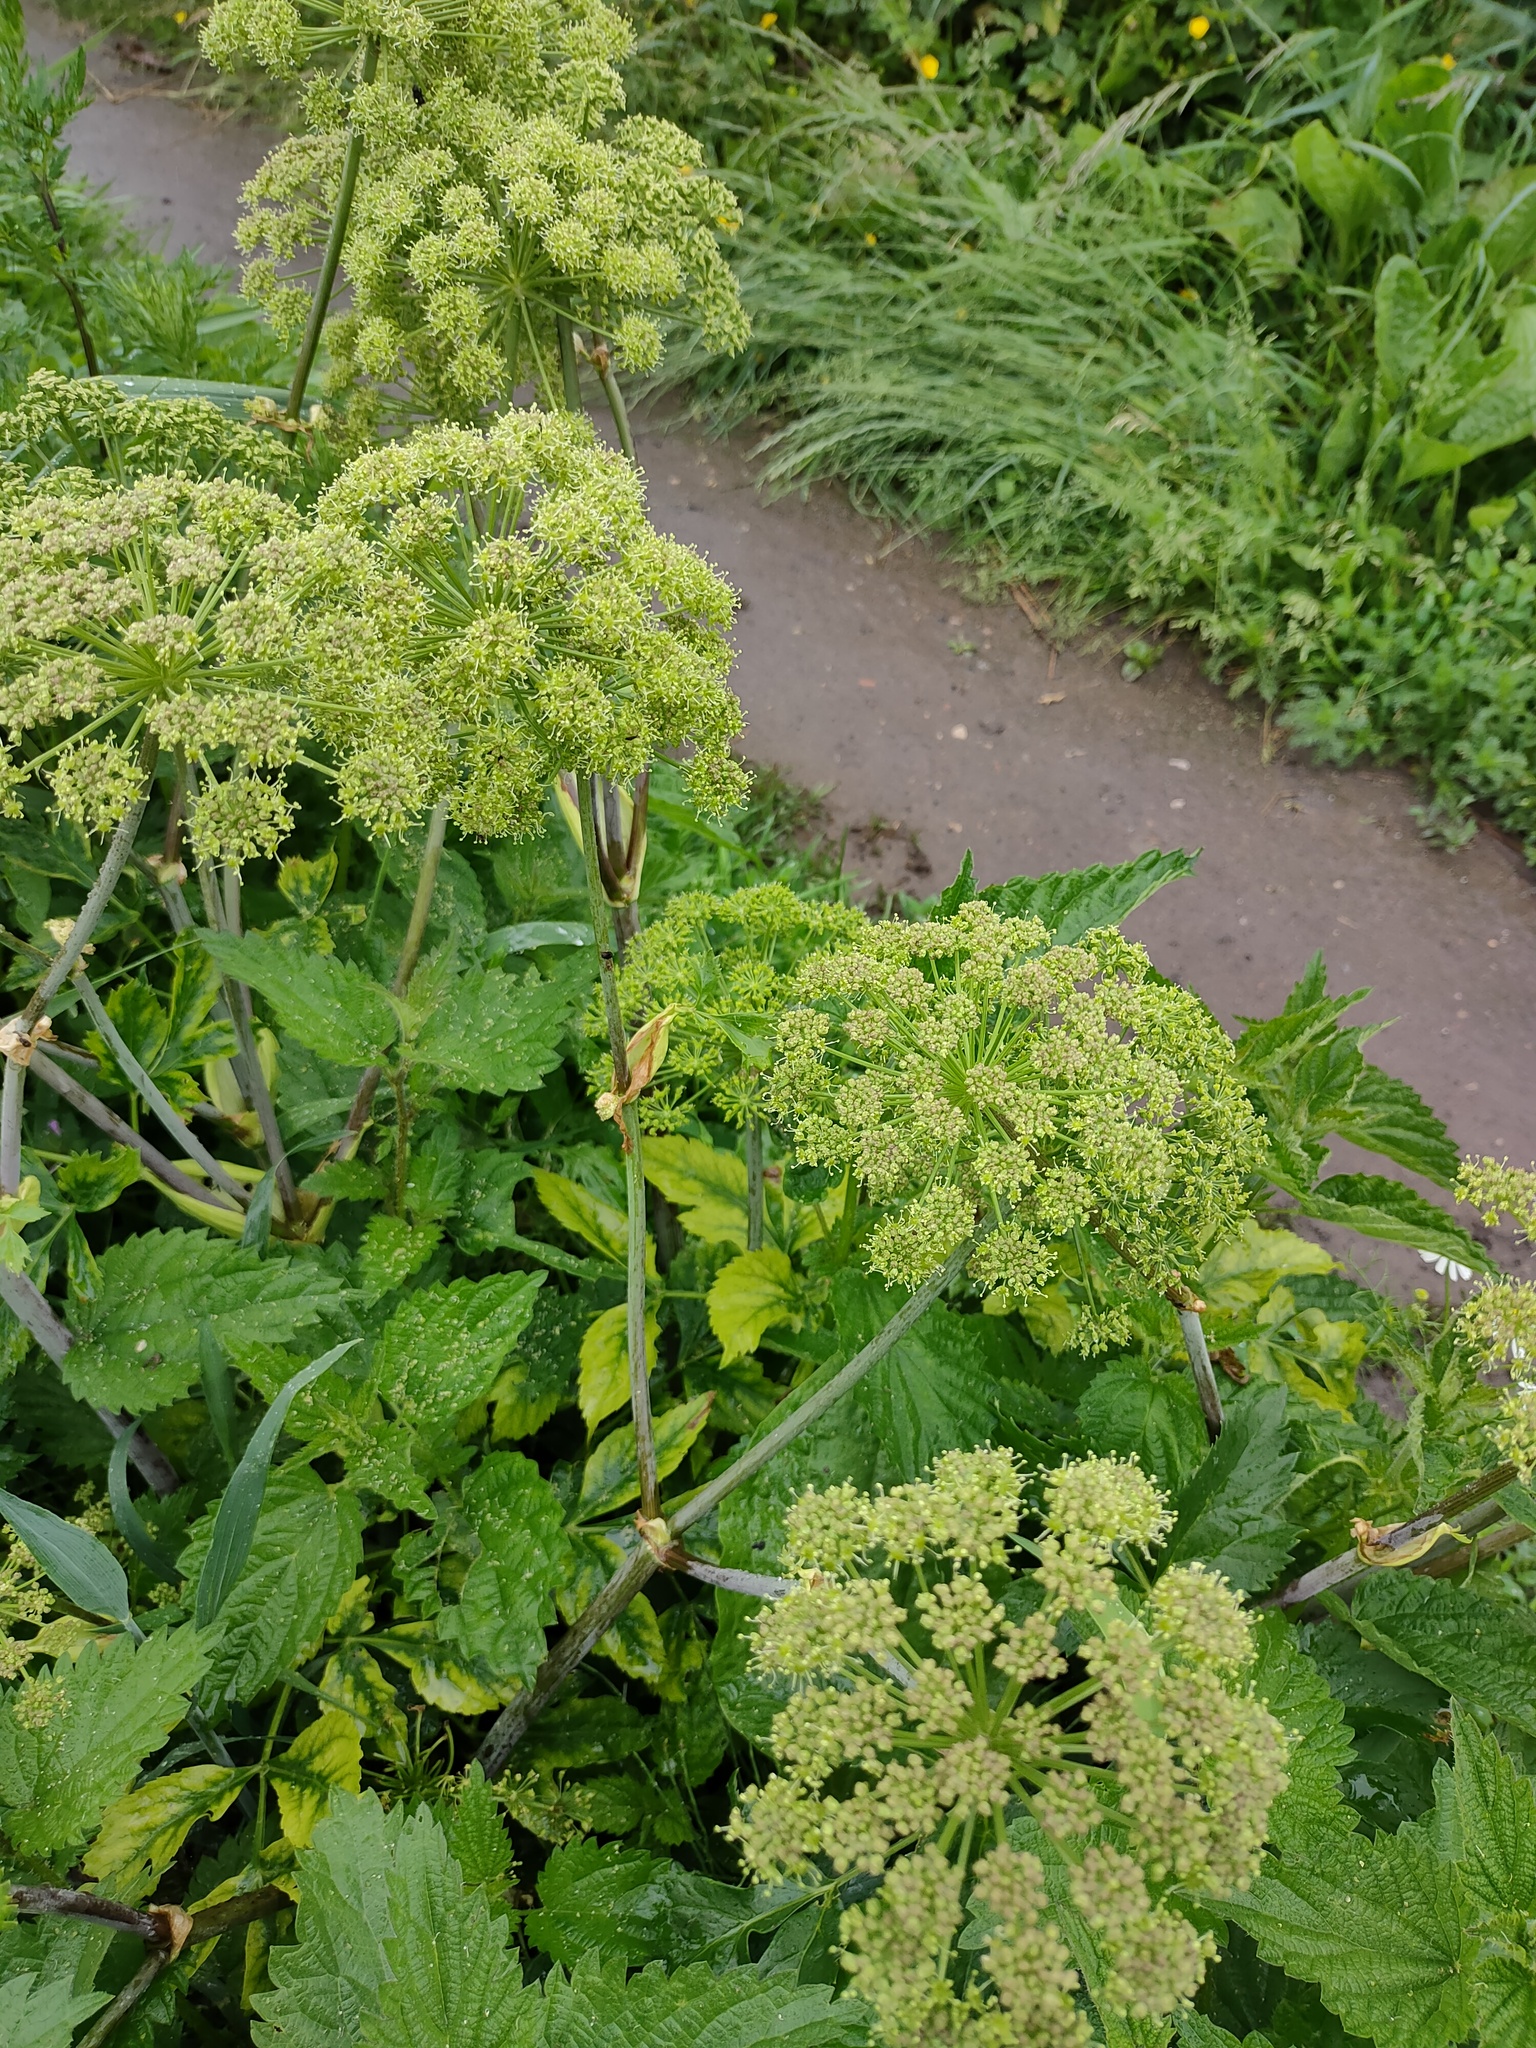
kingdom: Plantae
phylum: Tracheophyta
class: Magnoliopsida
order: Apiales
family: Apiaceae
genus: Angelica
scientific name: Angelica archangelica
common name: Garden angelica
